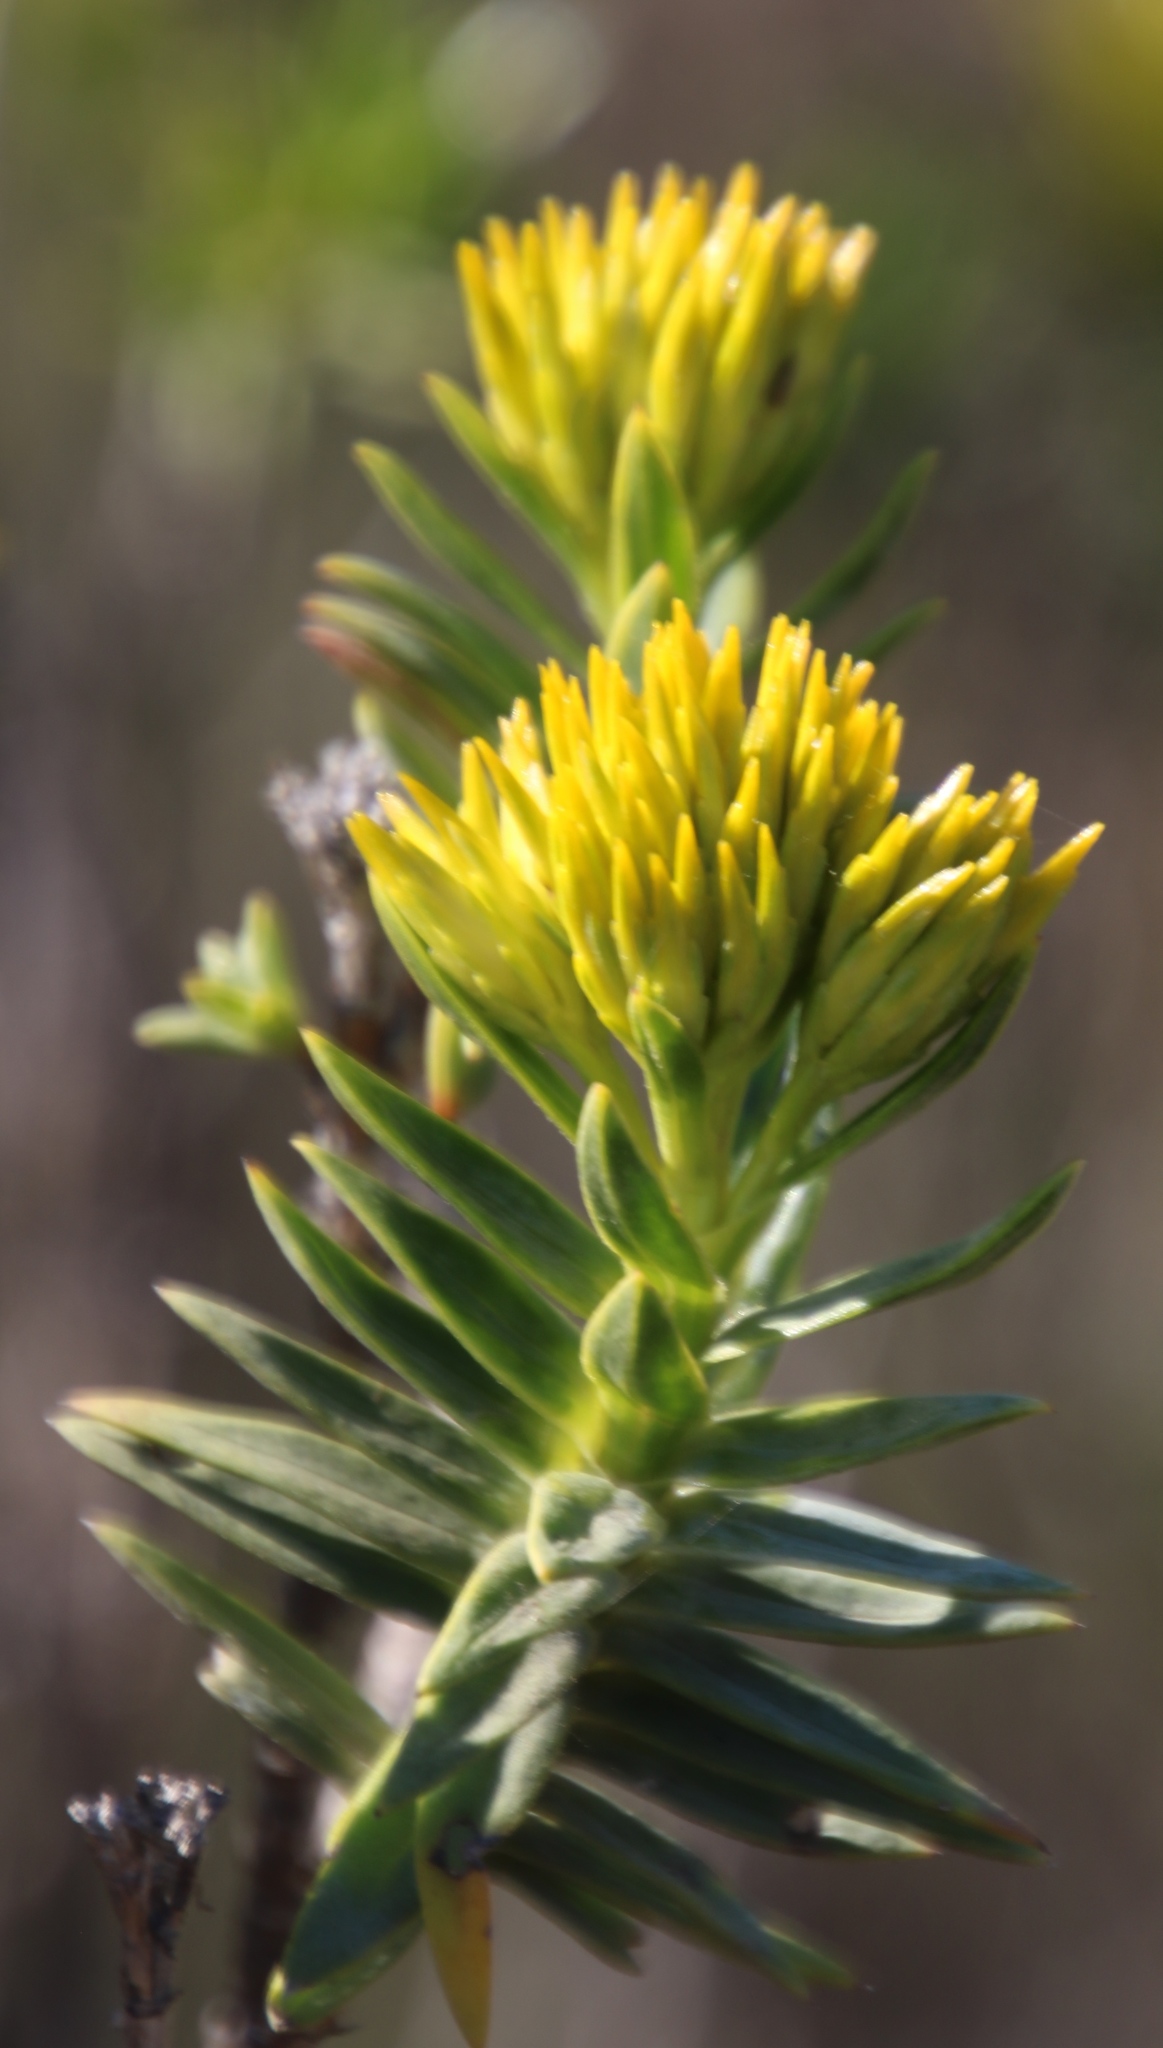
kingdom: Plantae
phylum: Tracheophyta
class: Magnoliopsida
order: Asterales
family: Asteraceae
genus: Pteronia
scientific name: Pteronia fasciculata
